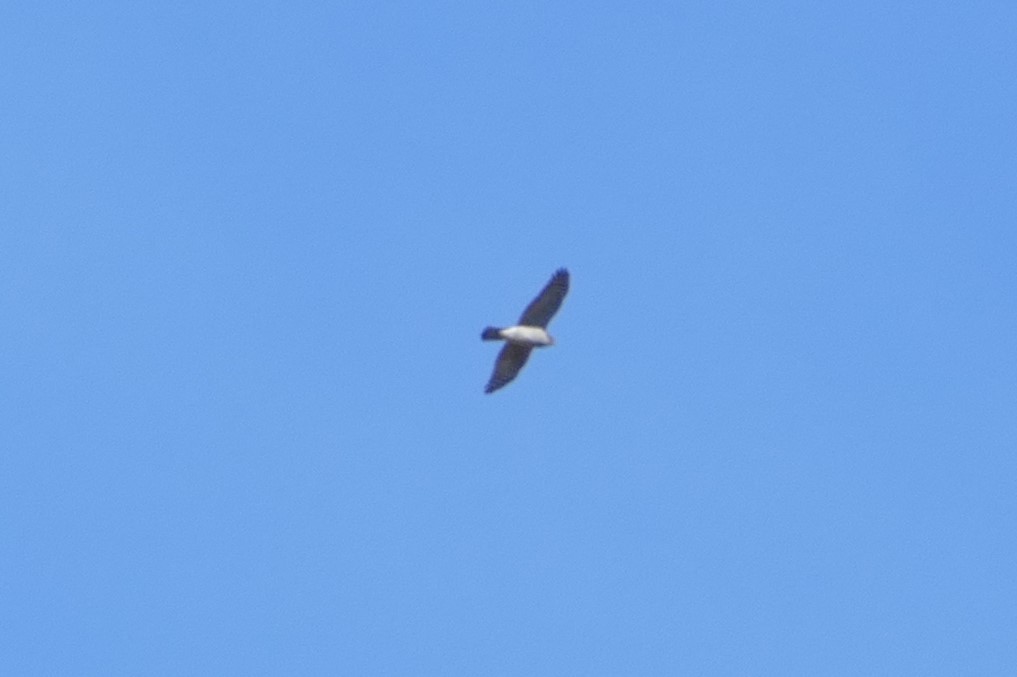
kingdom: Animalia
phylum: Chordata
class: Aves
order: Accipitriformes
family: Accipitridae
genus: Accipiter
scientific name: Accipiter gentilis
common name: Northern goshawk
